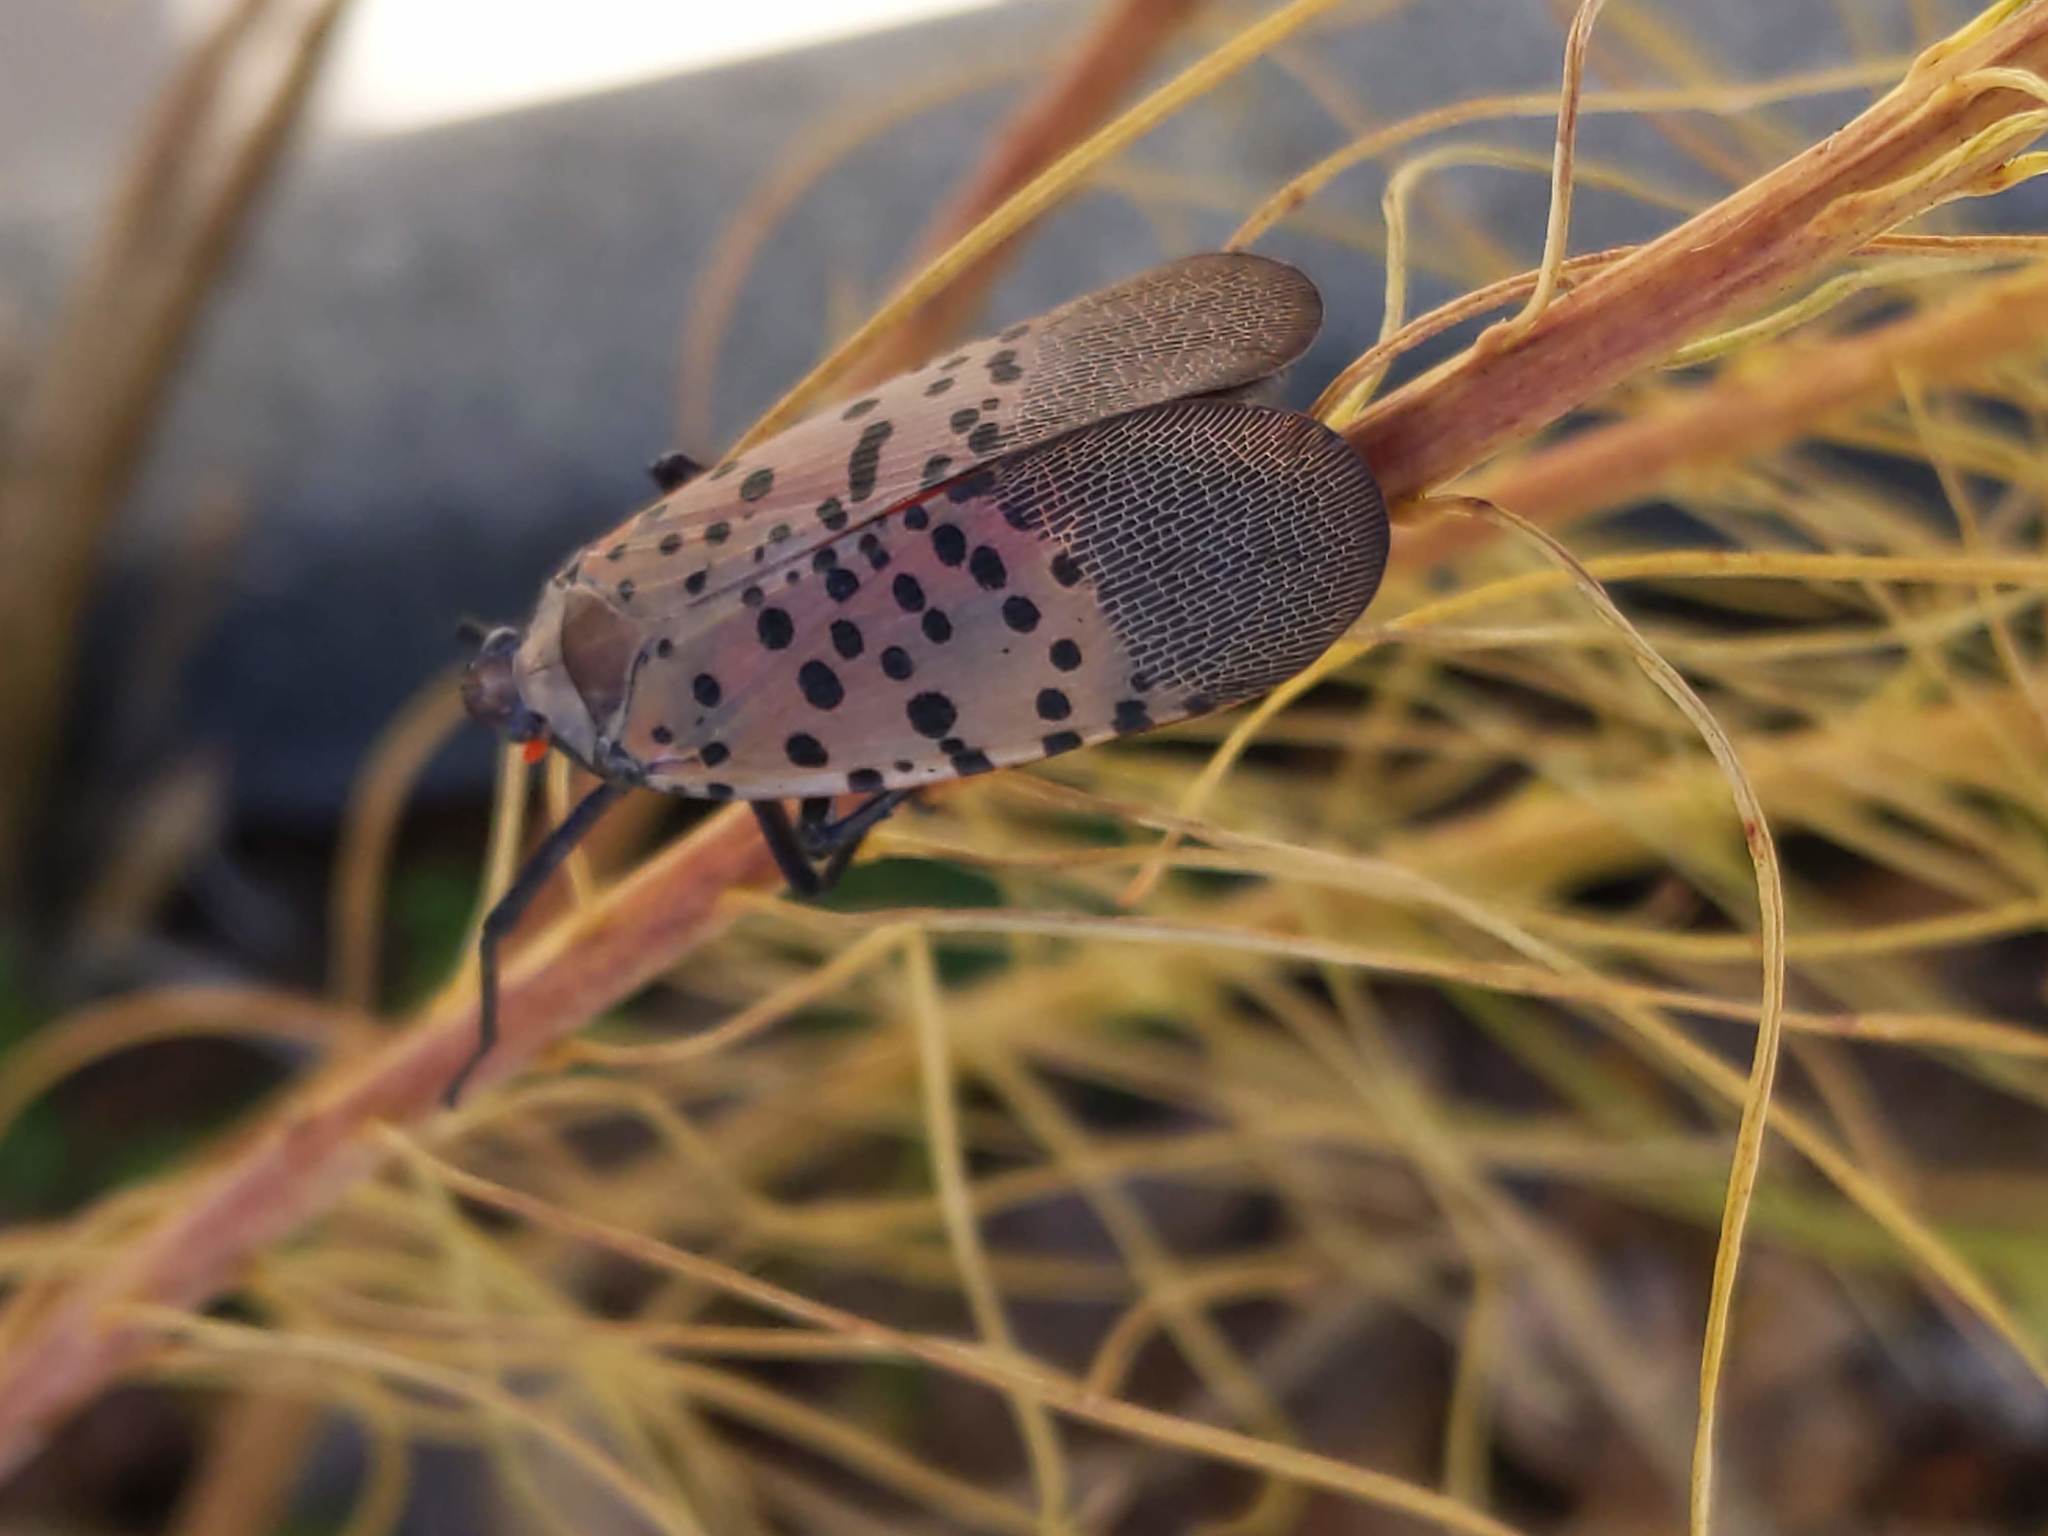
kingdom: Animalia
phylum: Arthropoda
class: Insecta
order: Hemiptera
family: Fulgoridae
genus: Lycorma
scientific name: Lycorma delicatula
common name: Spotted lanternfly
